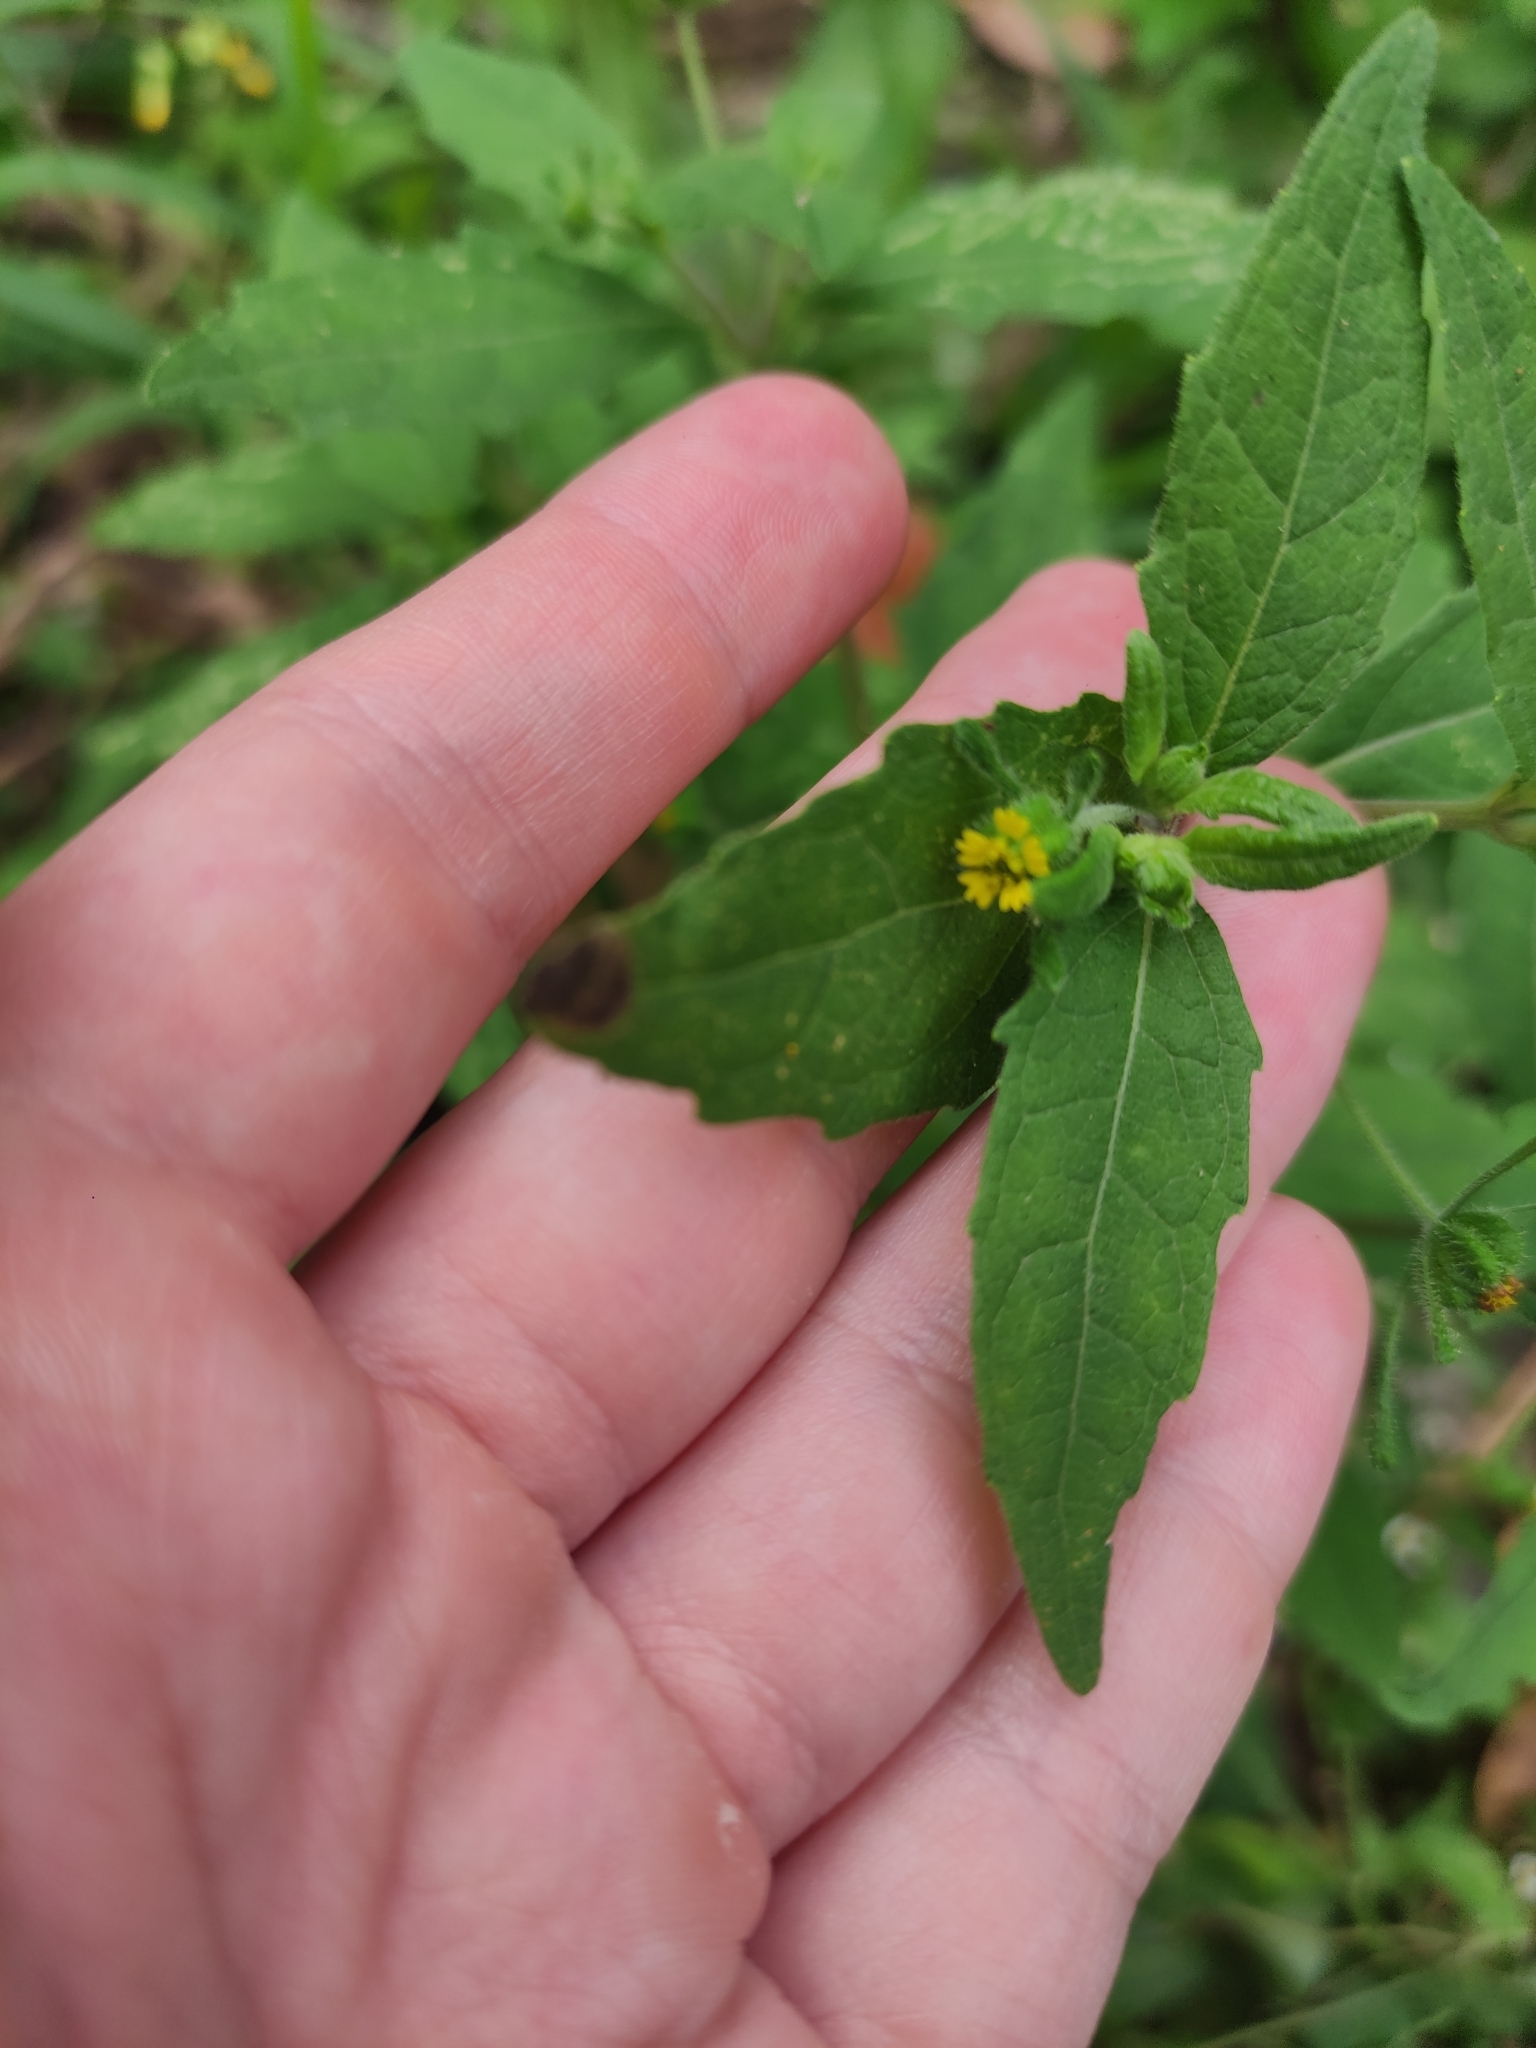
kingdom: Plantae
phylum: Tracheophyta
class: Magnoliopsida
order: Asterales
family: Asteraceae
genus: Sigesbeckia
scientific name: Sigesbeckia orientalis
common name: Eastern st paul's-wort
